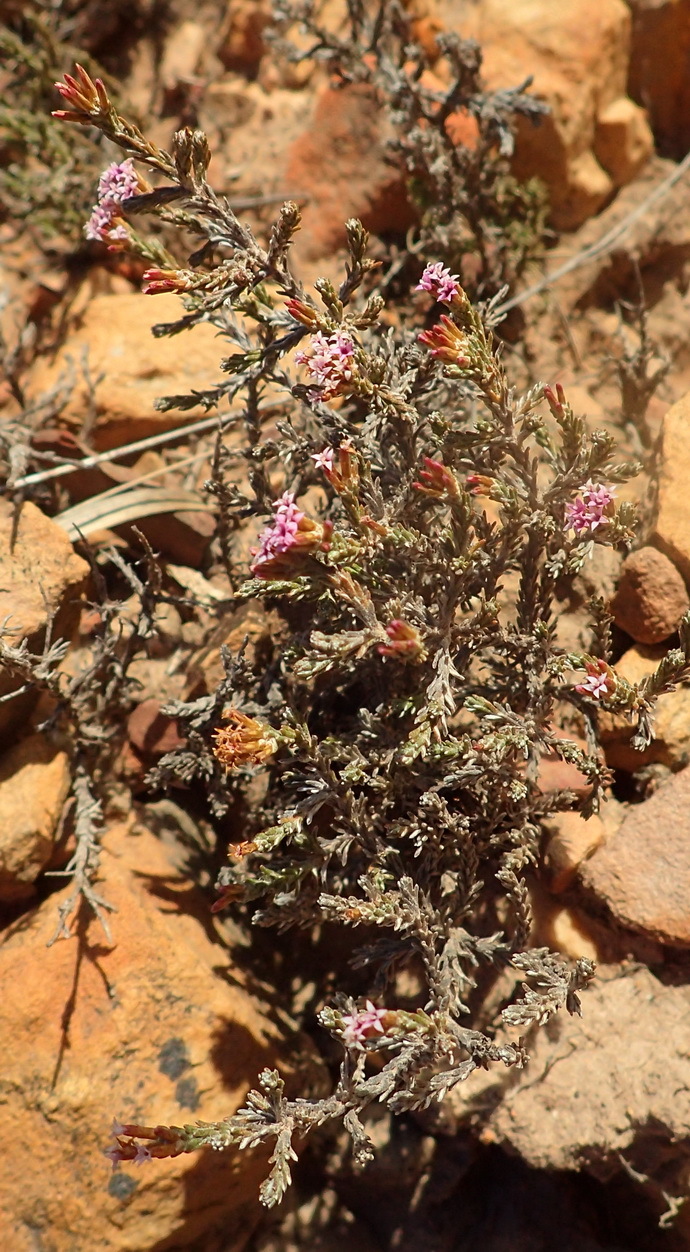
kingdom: Plantae
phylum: Tracheophyta
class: Magnoliopsida
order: Asterales
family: Asteraceae
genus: Stoebe
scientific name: Stoebe fusca
